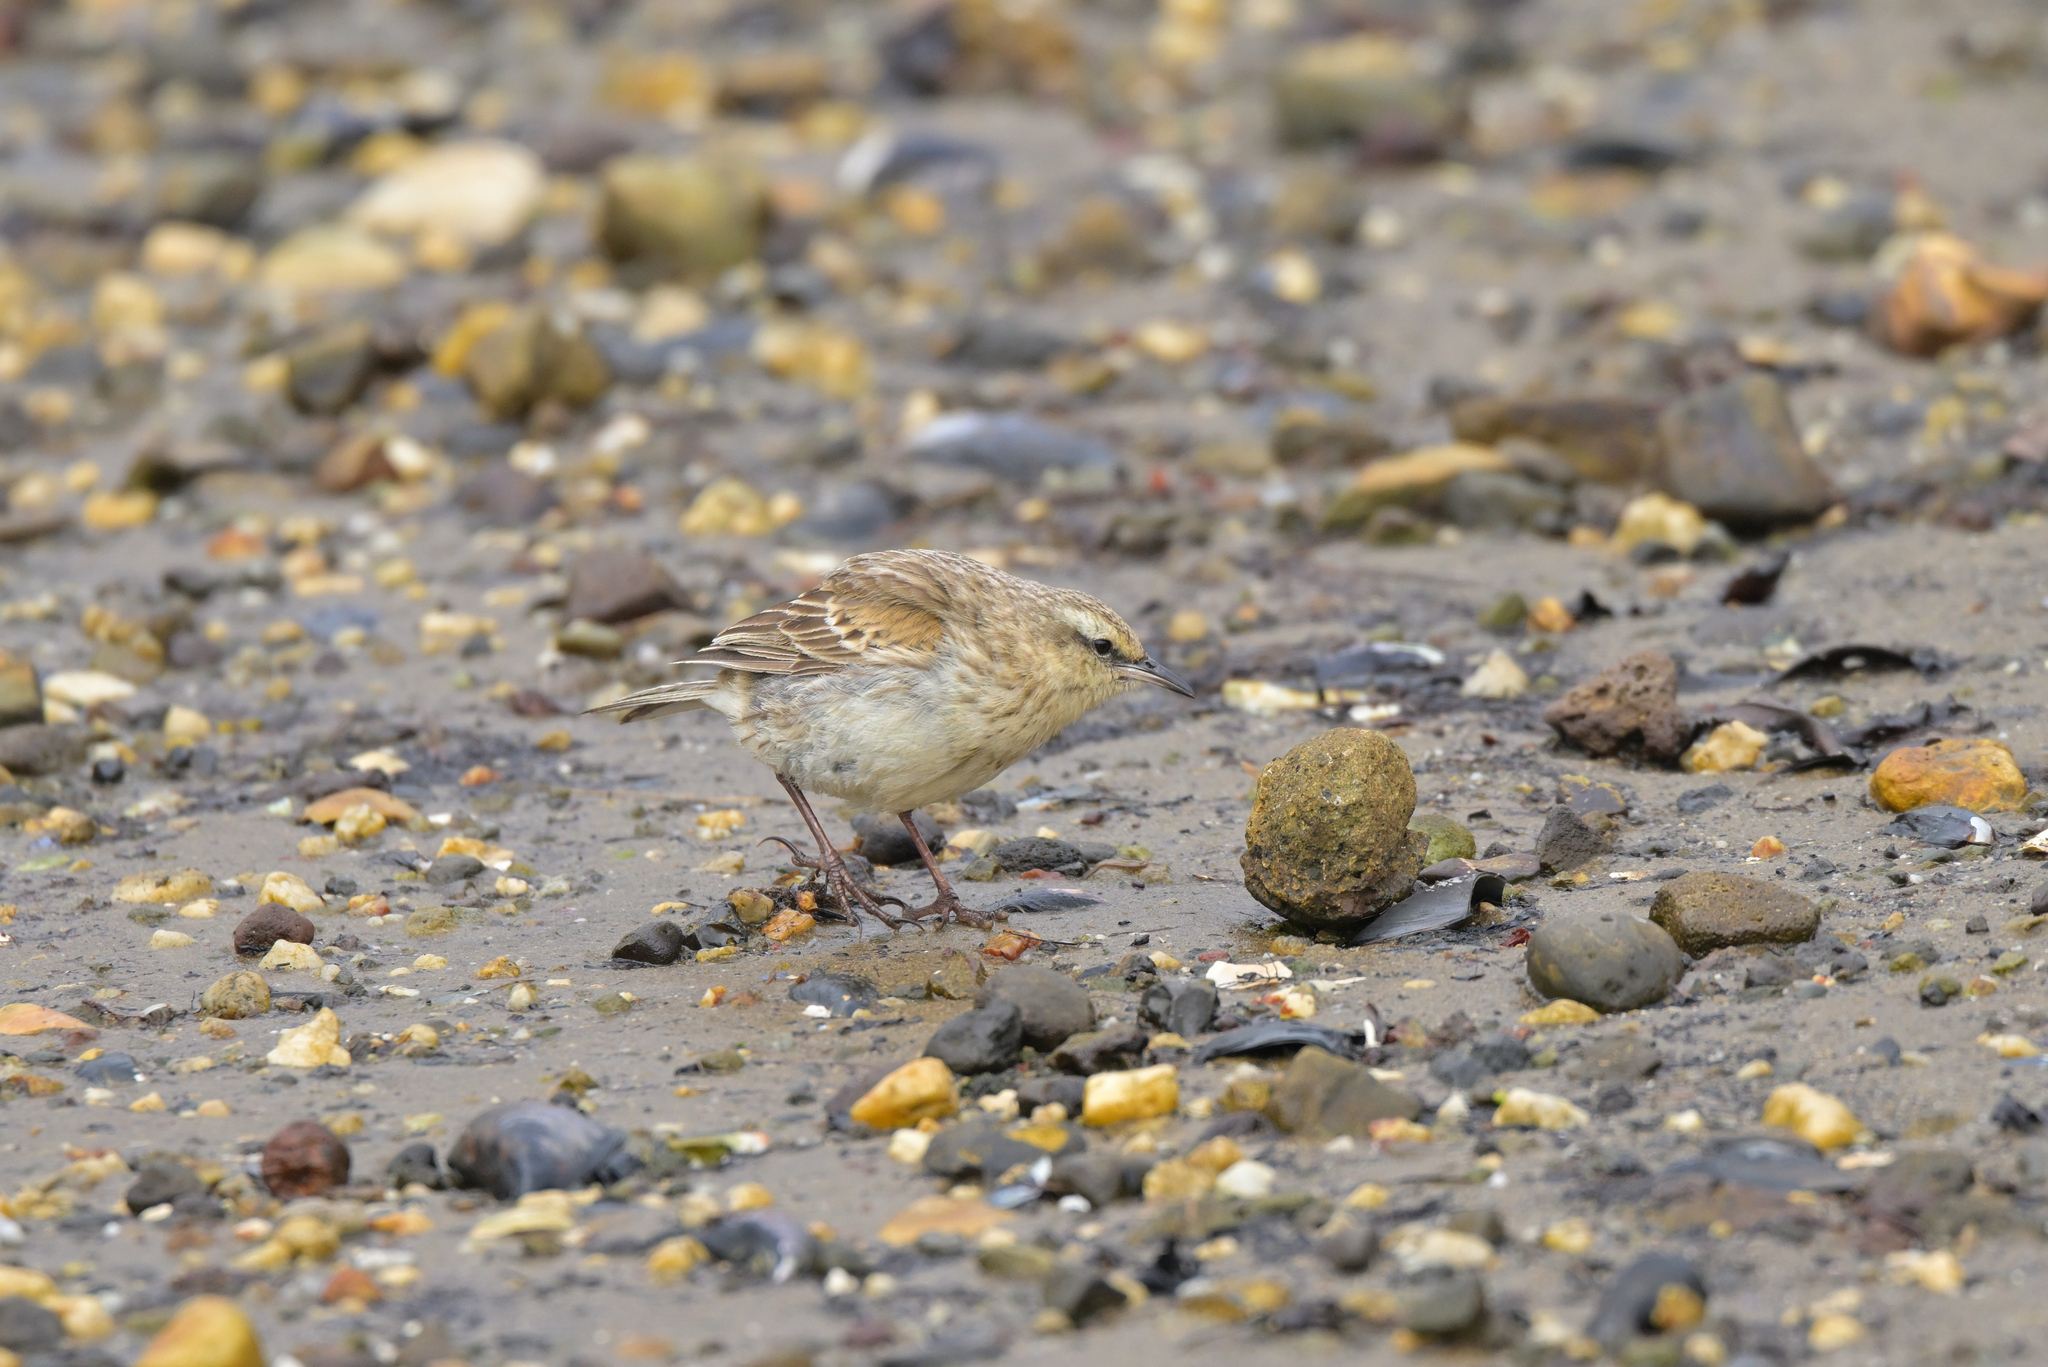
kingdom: Animalia
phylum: Chordata
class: Aves
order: Passeriformes
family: Motacillidae
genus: Anthus
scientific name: Anthus novaeseelandiae
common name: New zealand pipit
